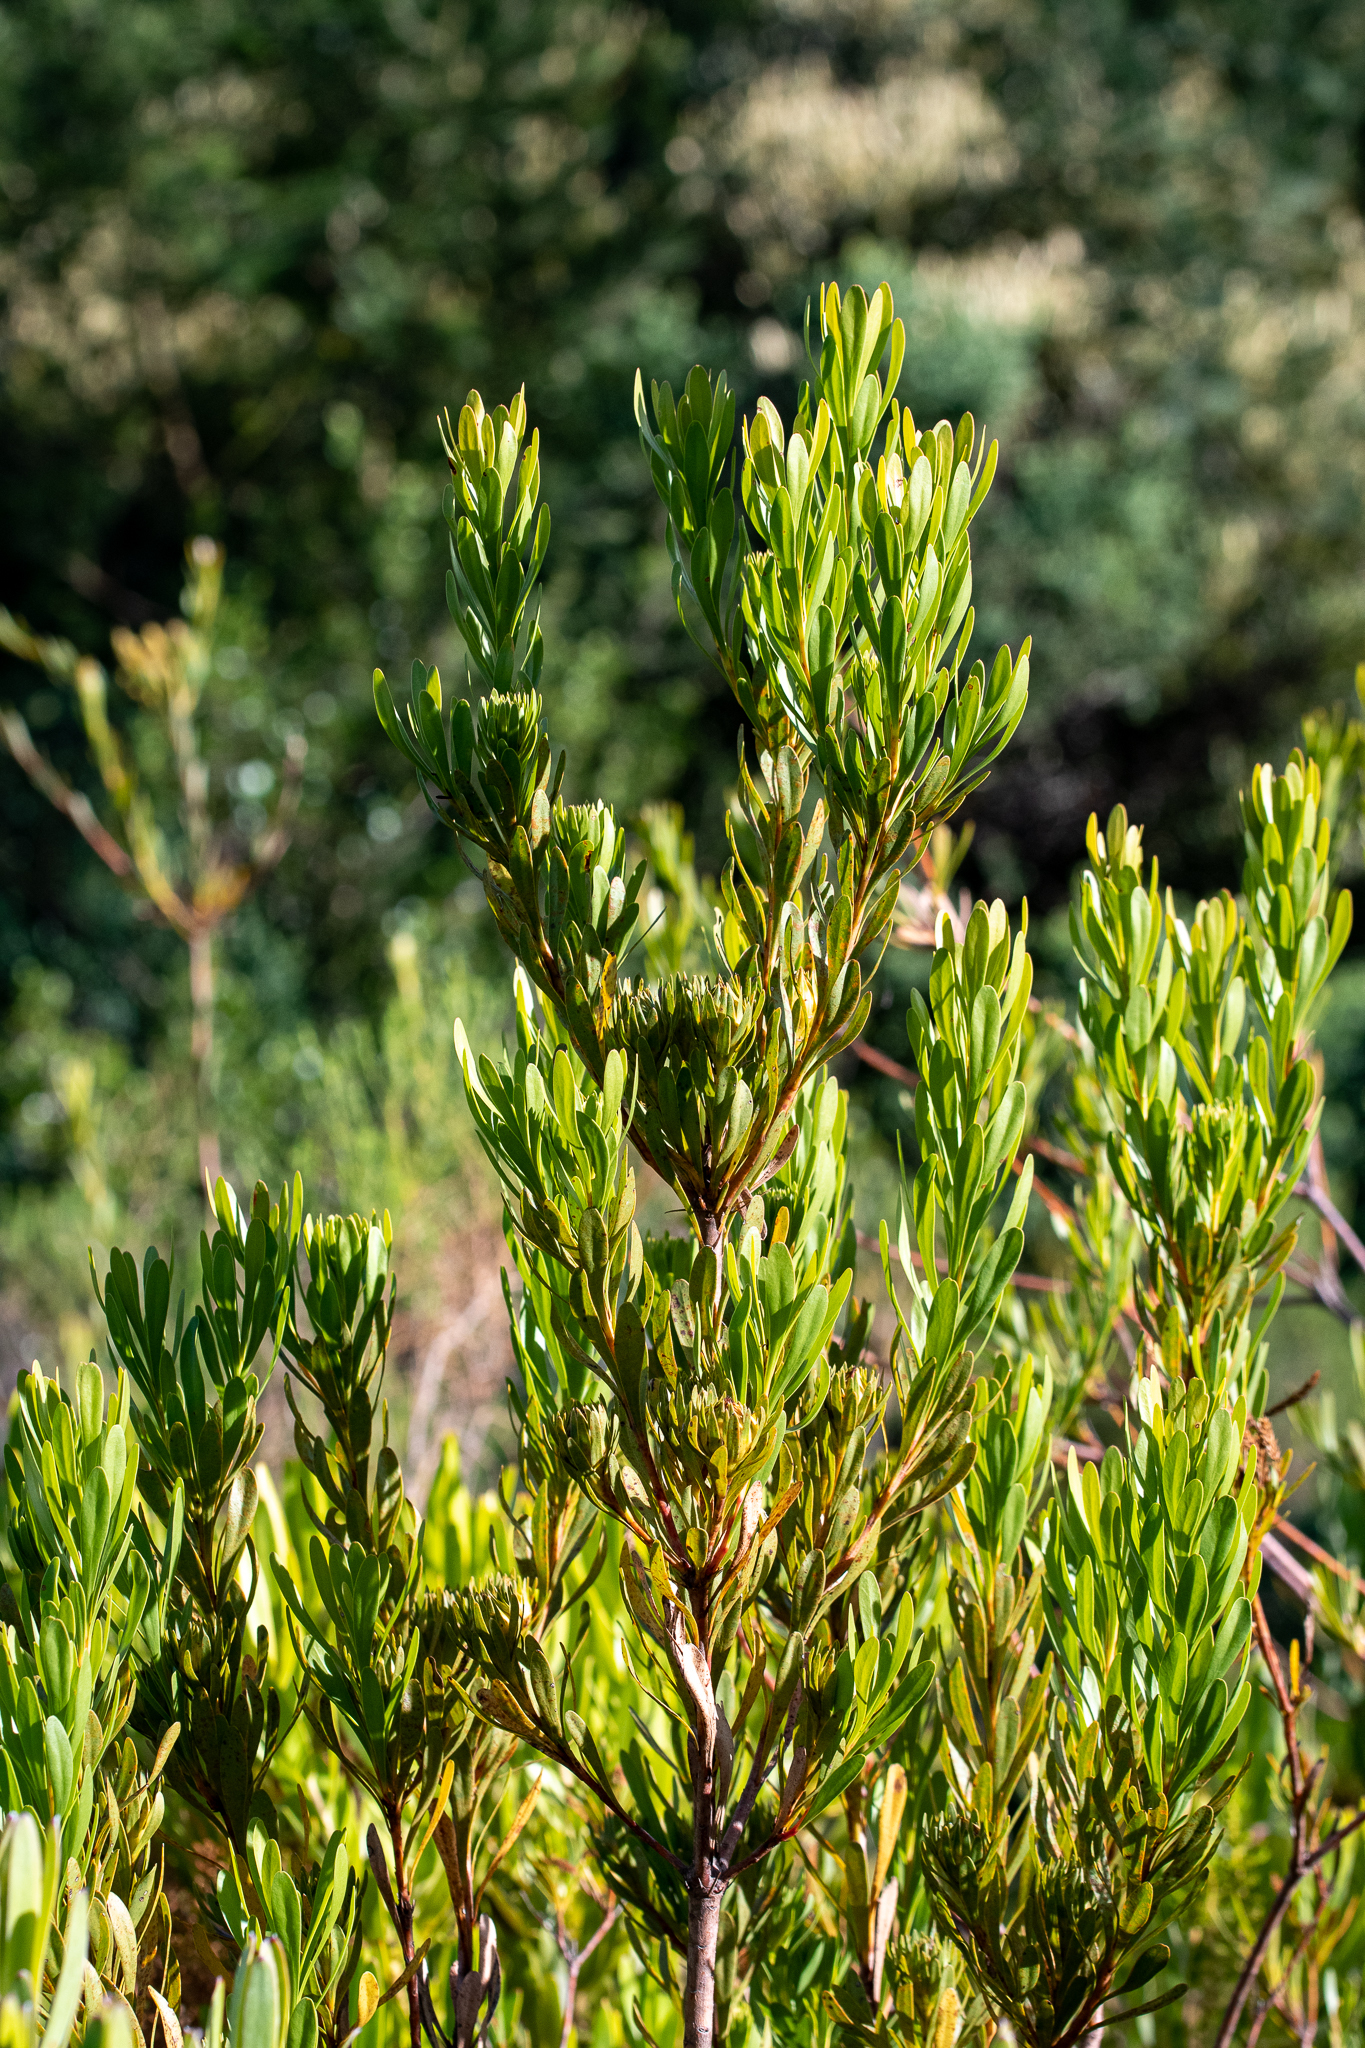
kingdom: Plantae
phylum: Tracheophyta
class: Magnoliopsida
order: Proteales
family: Proteaceae
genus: Aulax
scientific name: Aulax umbellata
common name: Broad-leaf featherbush
